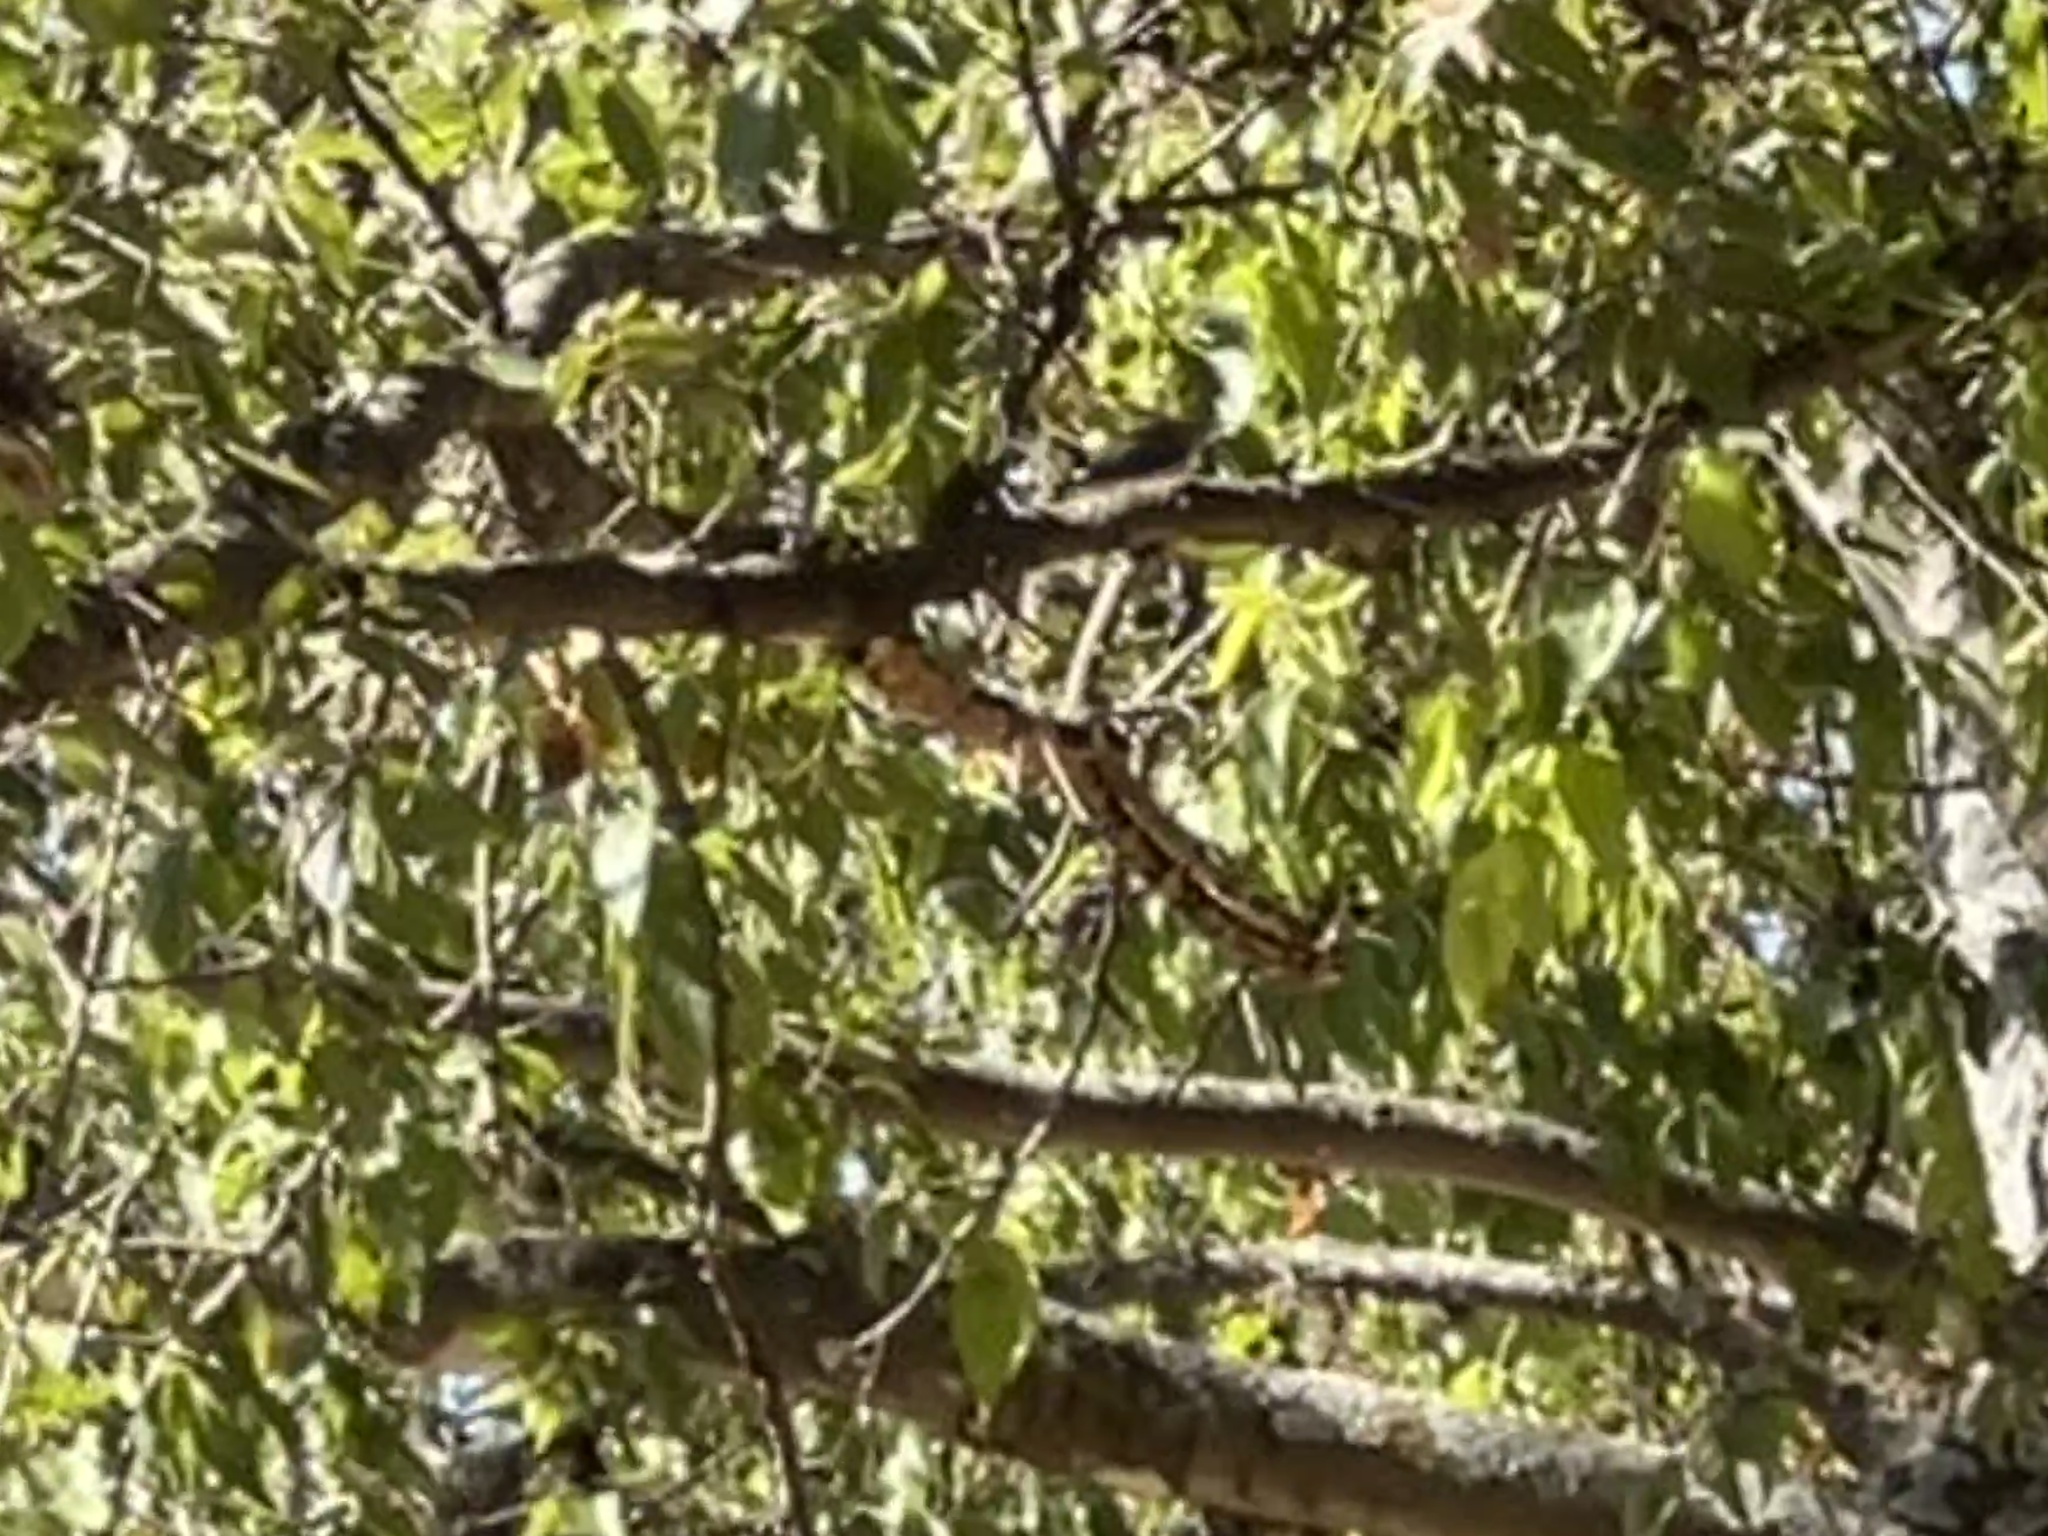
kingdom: Animalia
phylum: Chordata
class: Aves
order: Passeriformes
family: Polioptilidae
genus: Polioptila
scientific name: Polioptila caerulea
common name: Blue-gray gnatcatcher
